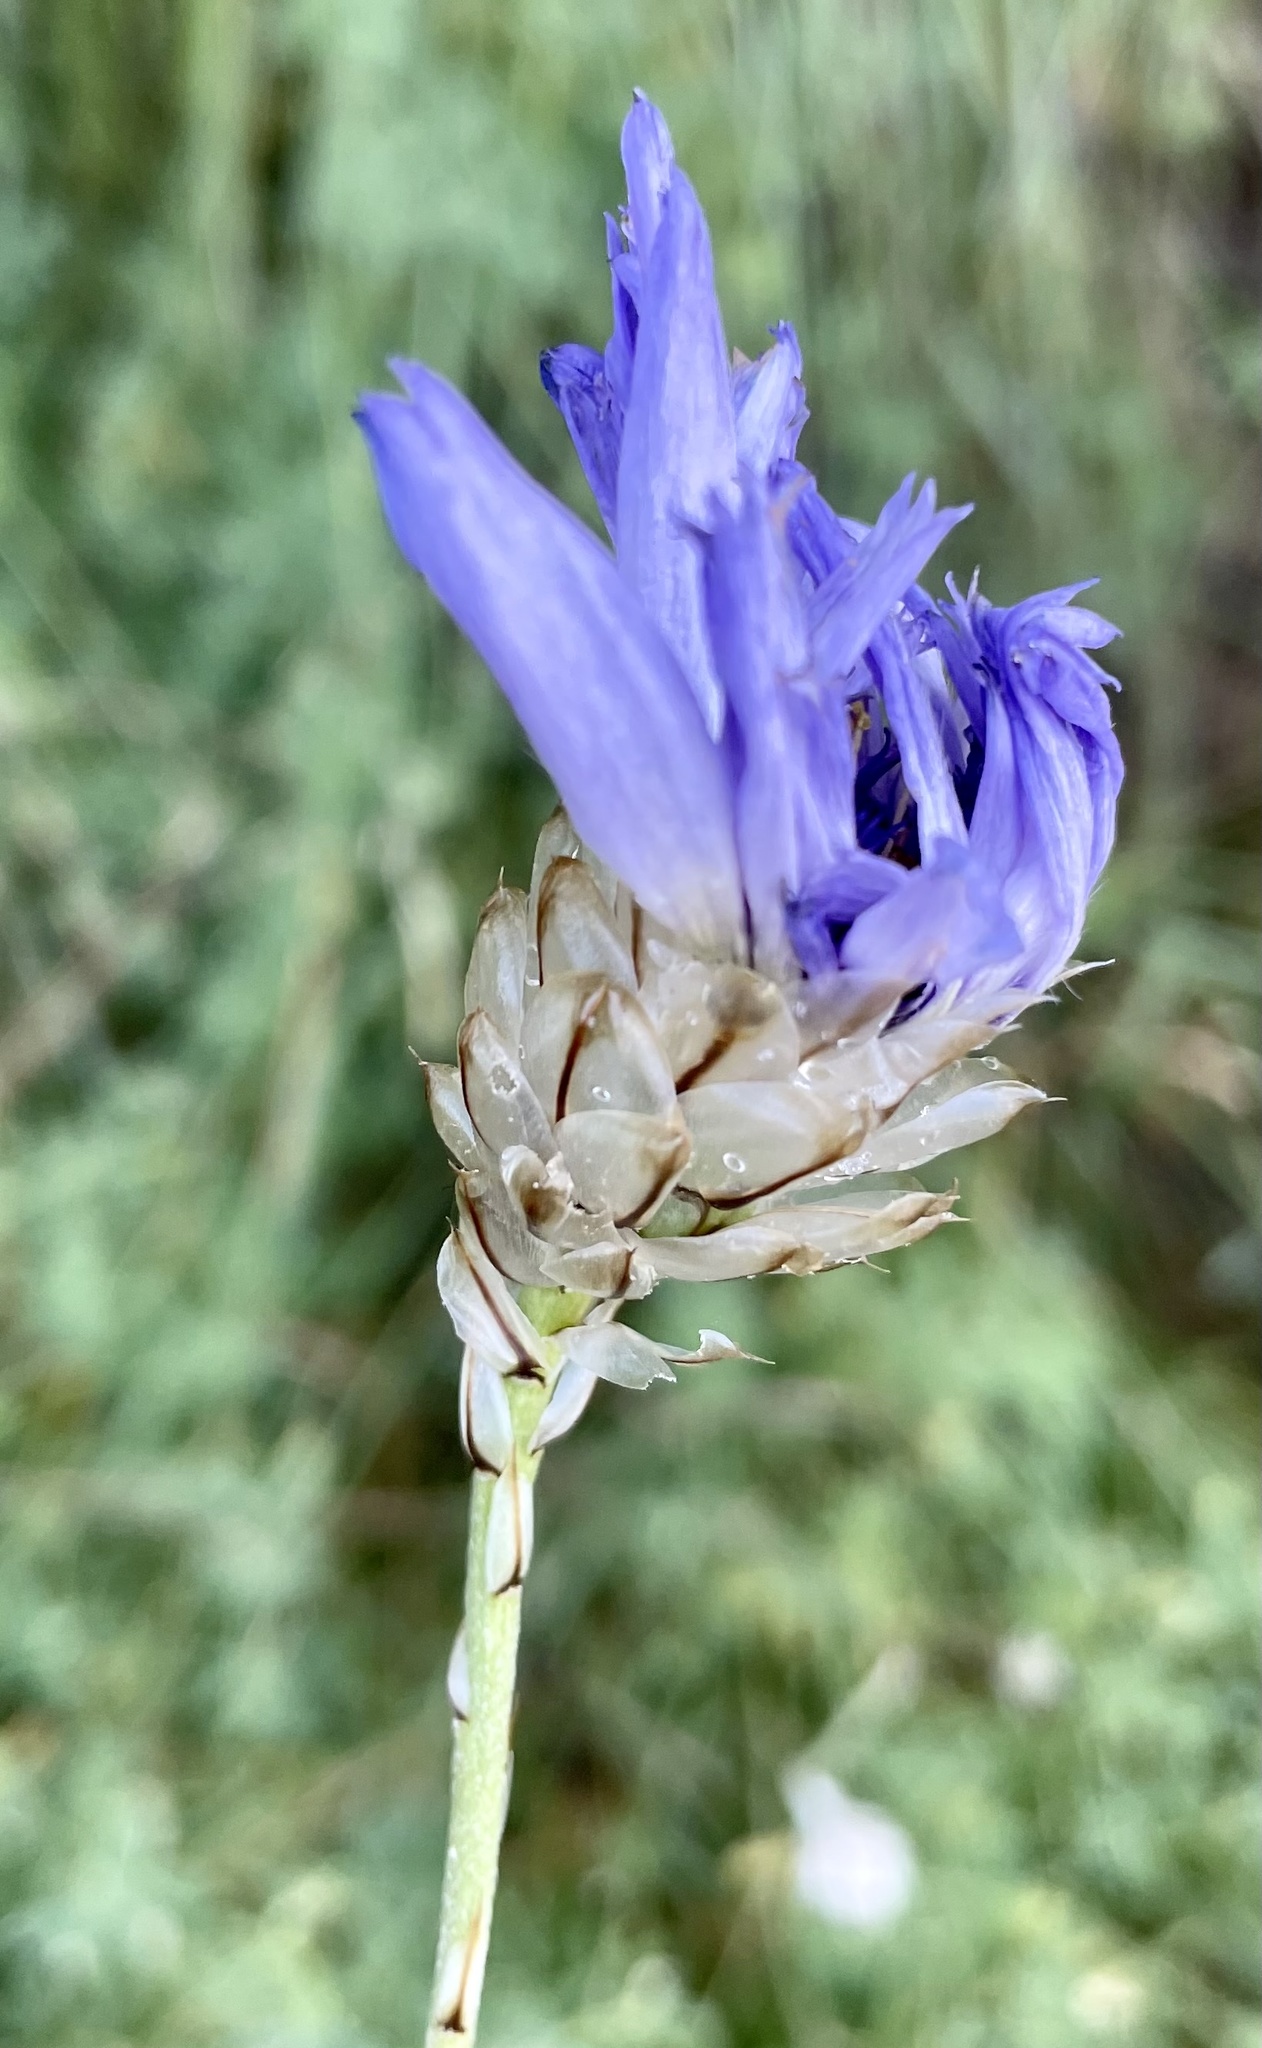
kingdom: Plantae
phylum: Tracheophyta
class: Magnoliopsida
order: Asterales
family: Asteraceae
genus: Catananche
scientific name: Catananche caerulea
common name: Blue cupidone
